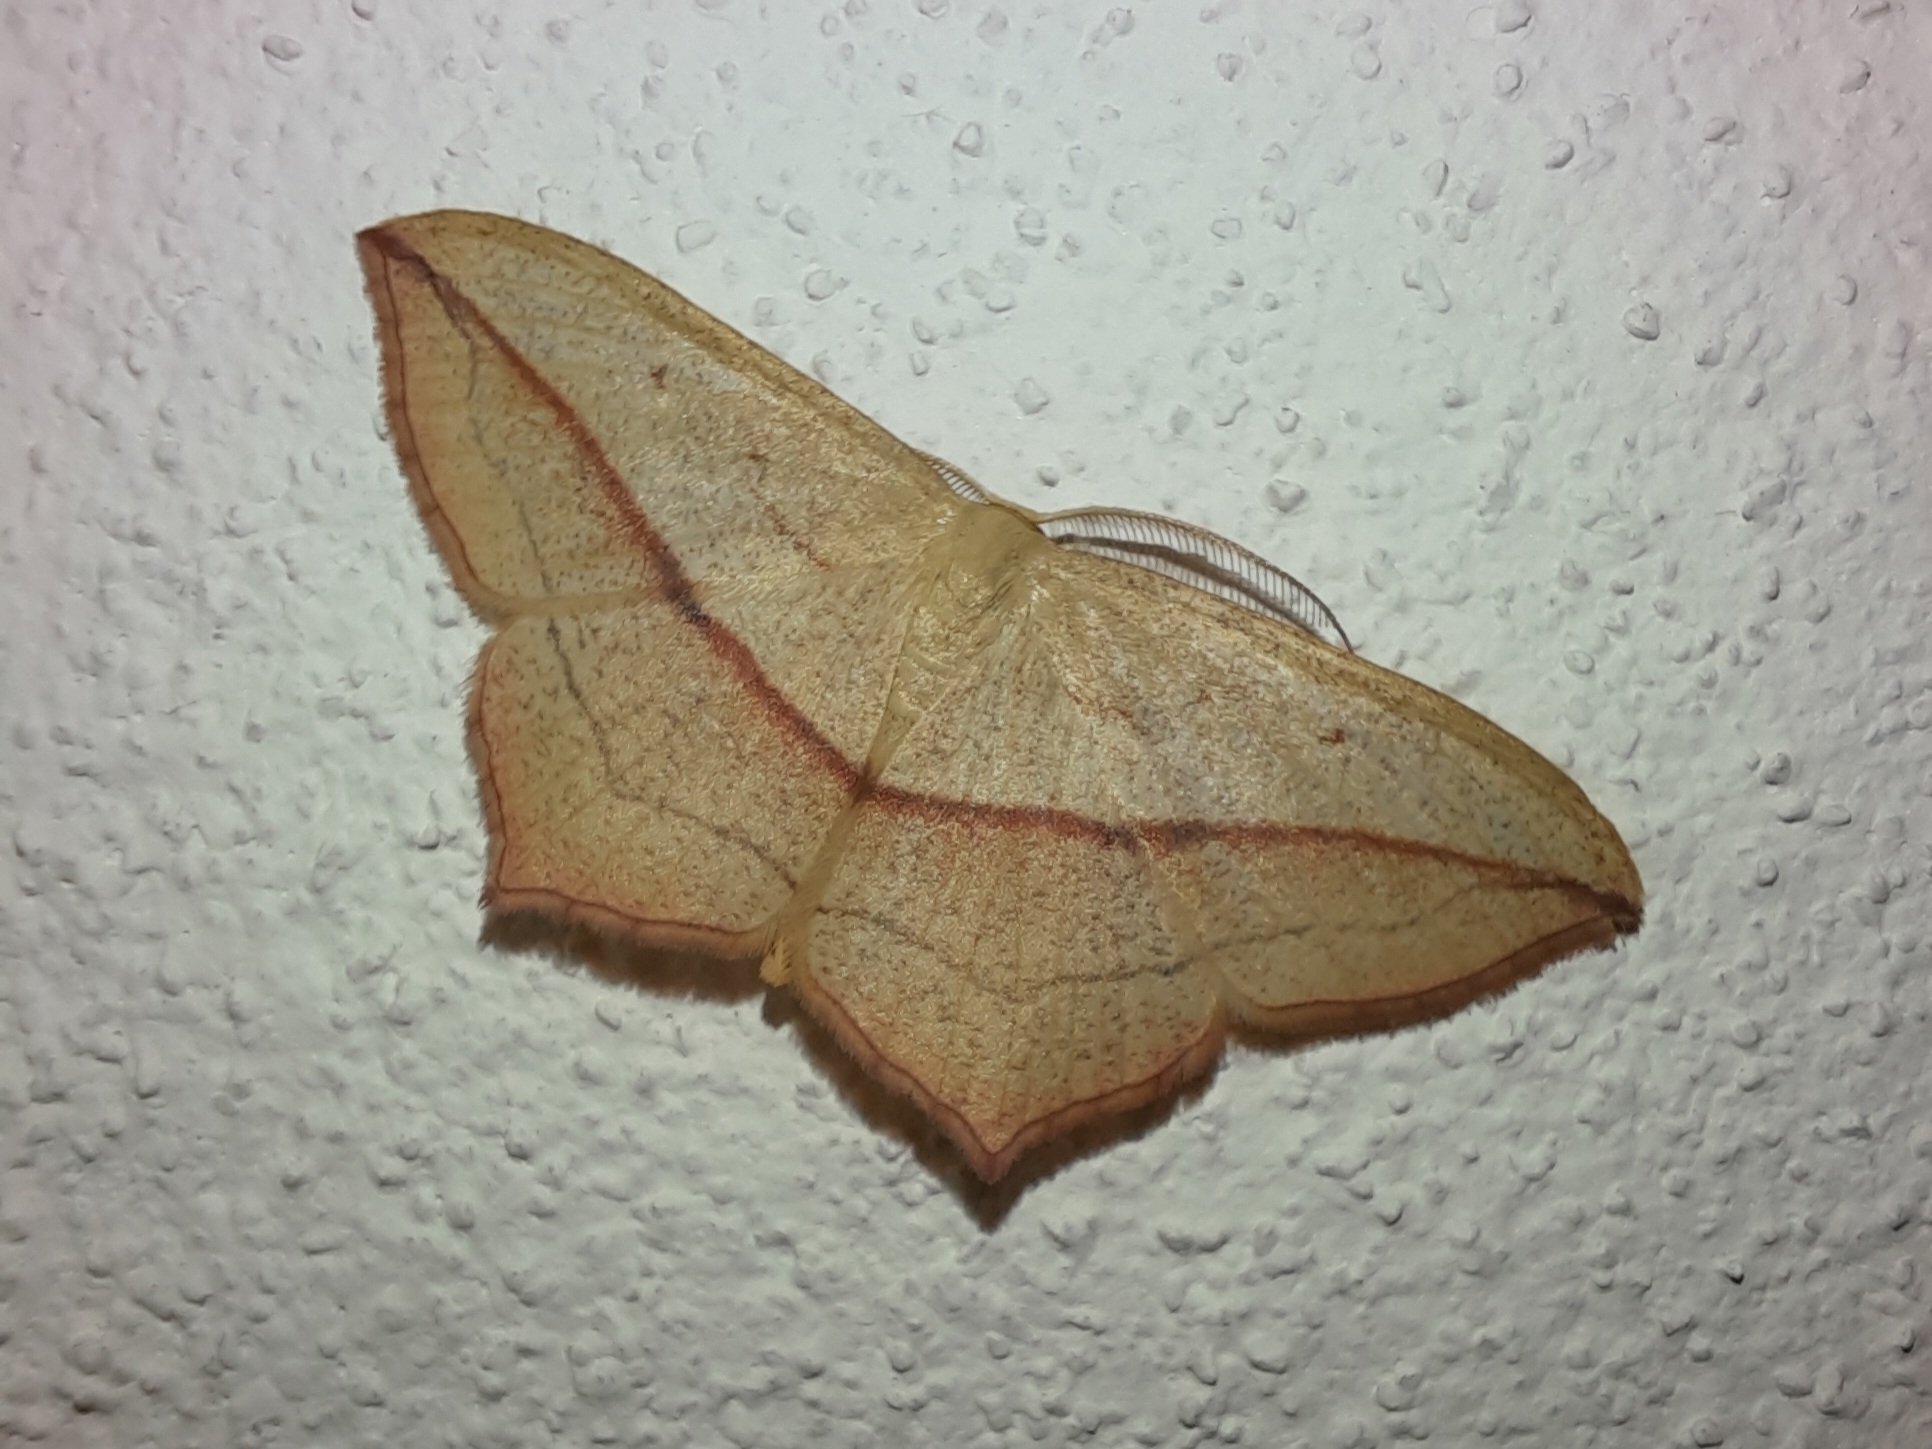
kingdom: Animalia
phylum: Arthropoda
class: Insecta
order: Lepidoptera
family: Geometridae
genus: Timandra
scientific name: Timandra comae
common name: Blood-vein
